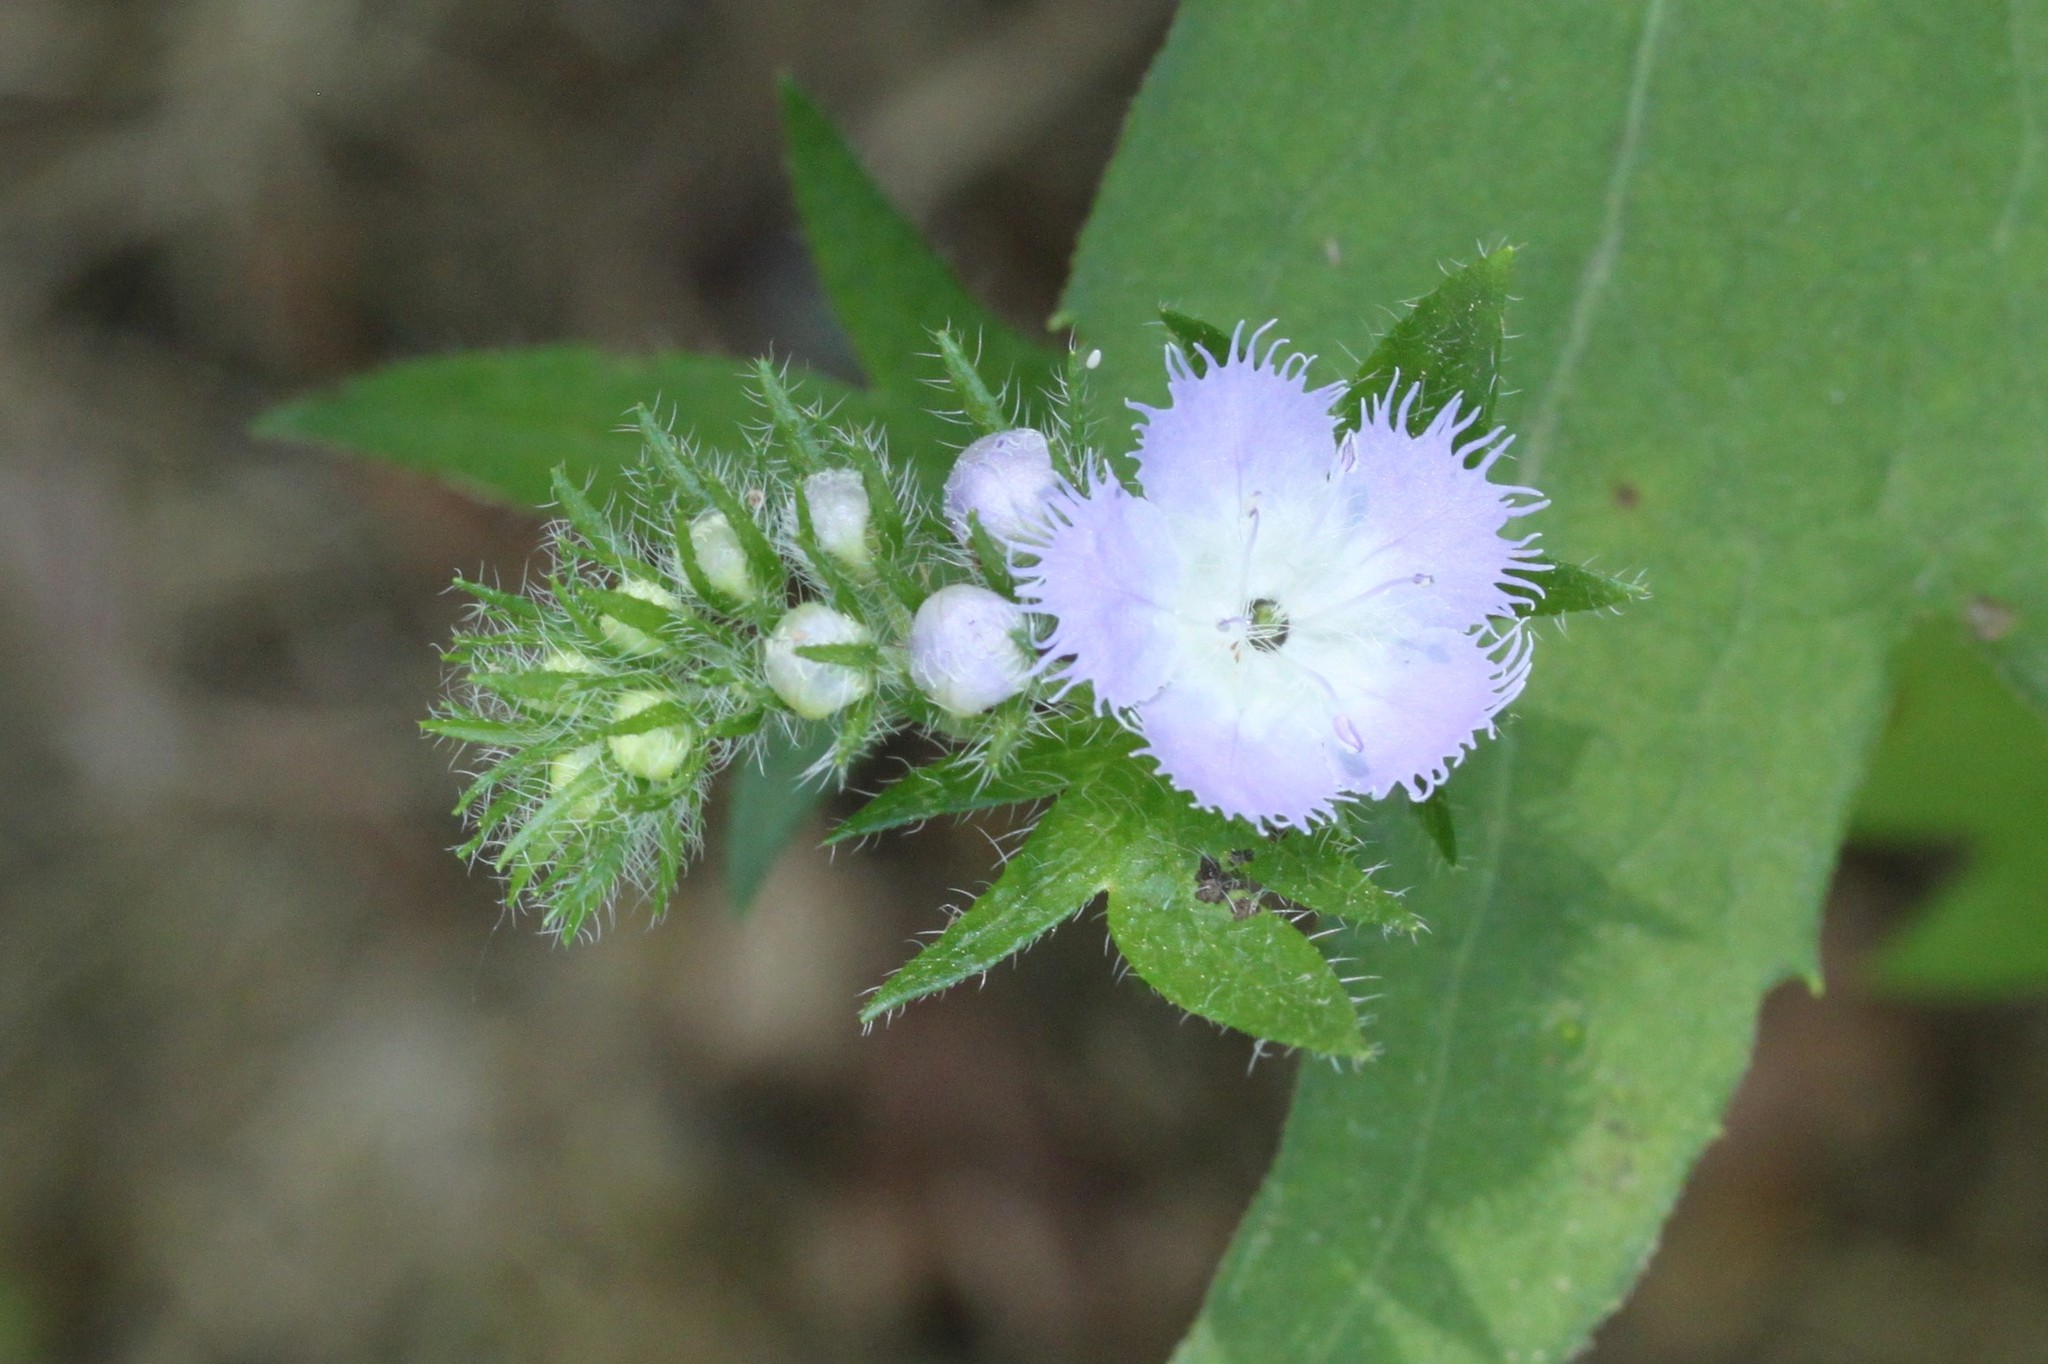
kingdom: Plantae
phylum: Tracheophyta
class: Magnoliopsida
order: Boraginales
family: Hydrophyllaceae
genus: Phacelia
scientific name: Phacelia purshii
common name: Miami-mist
